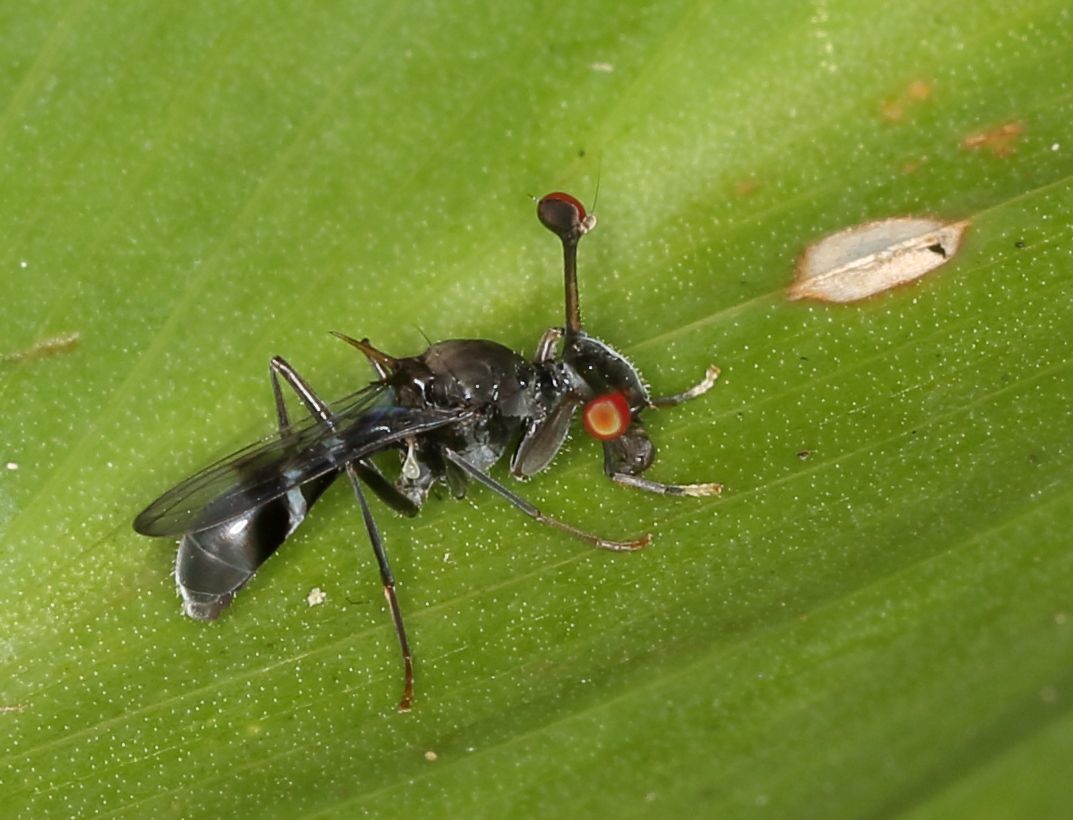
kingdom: Animalia
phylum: Arthropoda
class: Insecta
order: Diptera
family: Diopsidae
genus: Chaetodiopsis
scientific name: Chaetodiopsis
